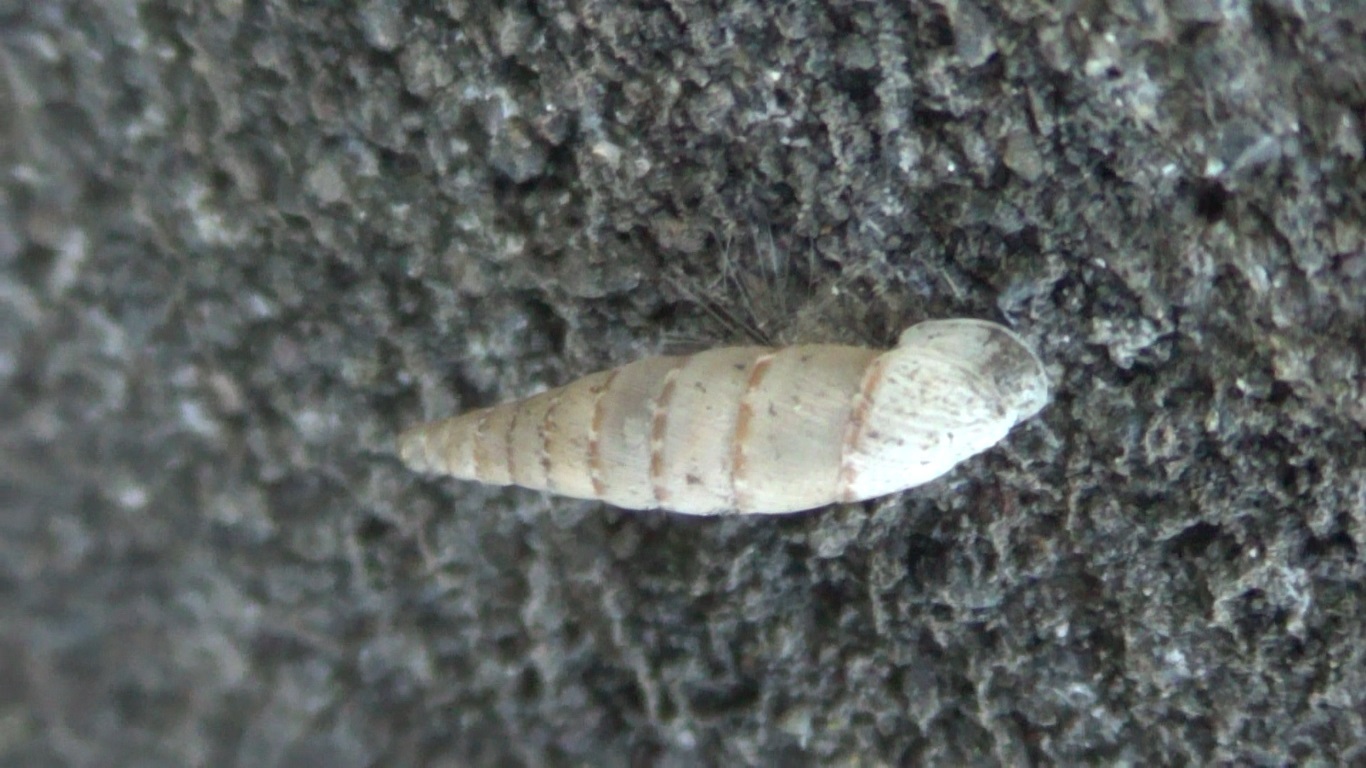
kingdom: Animalia
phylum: Mollusca
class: Gastropoda
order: Stylommatophora
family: Clausiliidae
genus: Papillifera
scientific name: Papillifera papillaris
